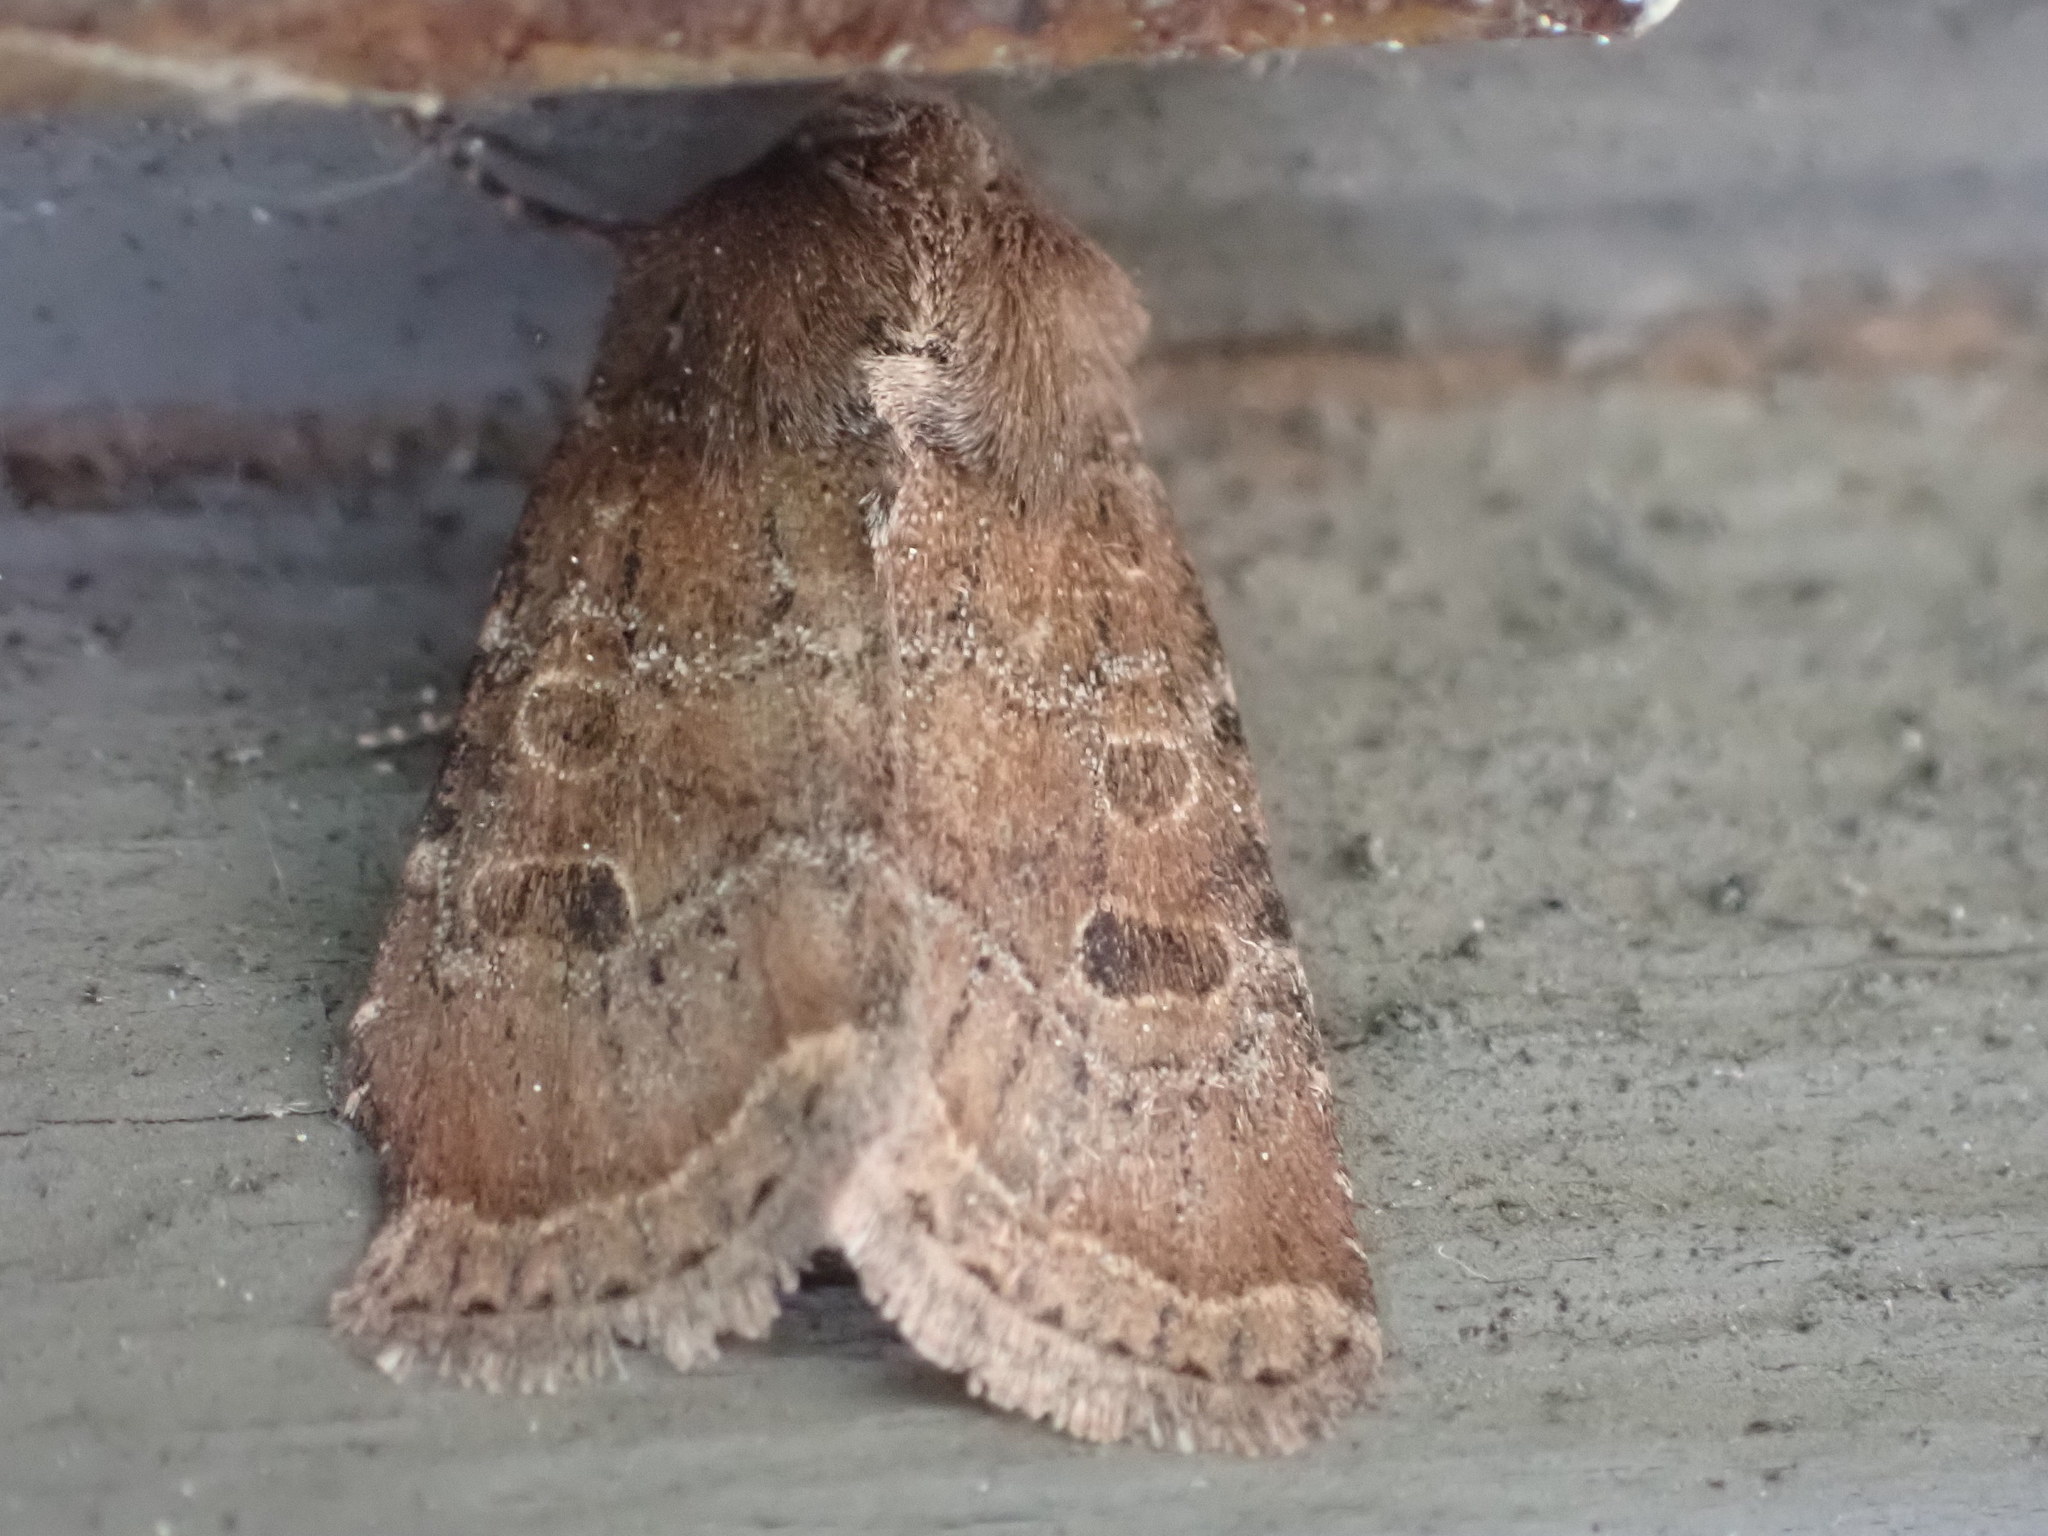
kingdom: Animalia
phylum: Arthropoda
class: Insecta
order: Lepidoptera
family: Noctuidae
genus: Trichopolia
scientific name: Trichopolia
